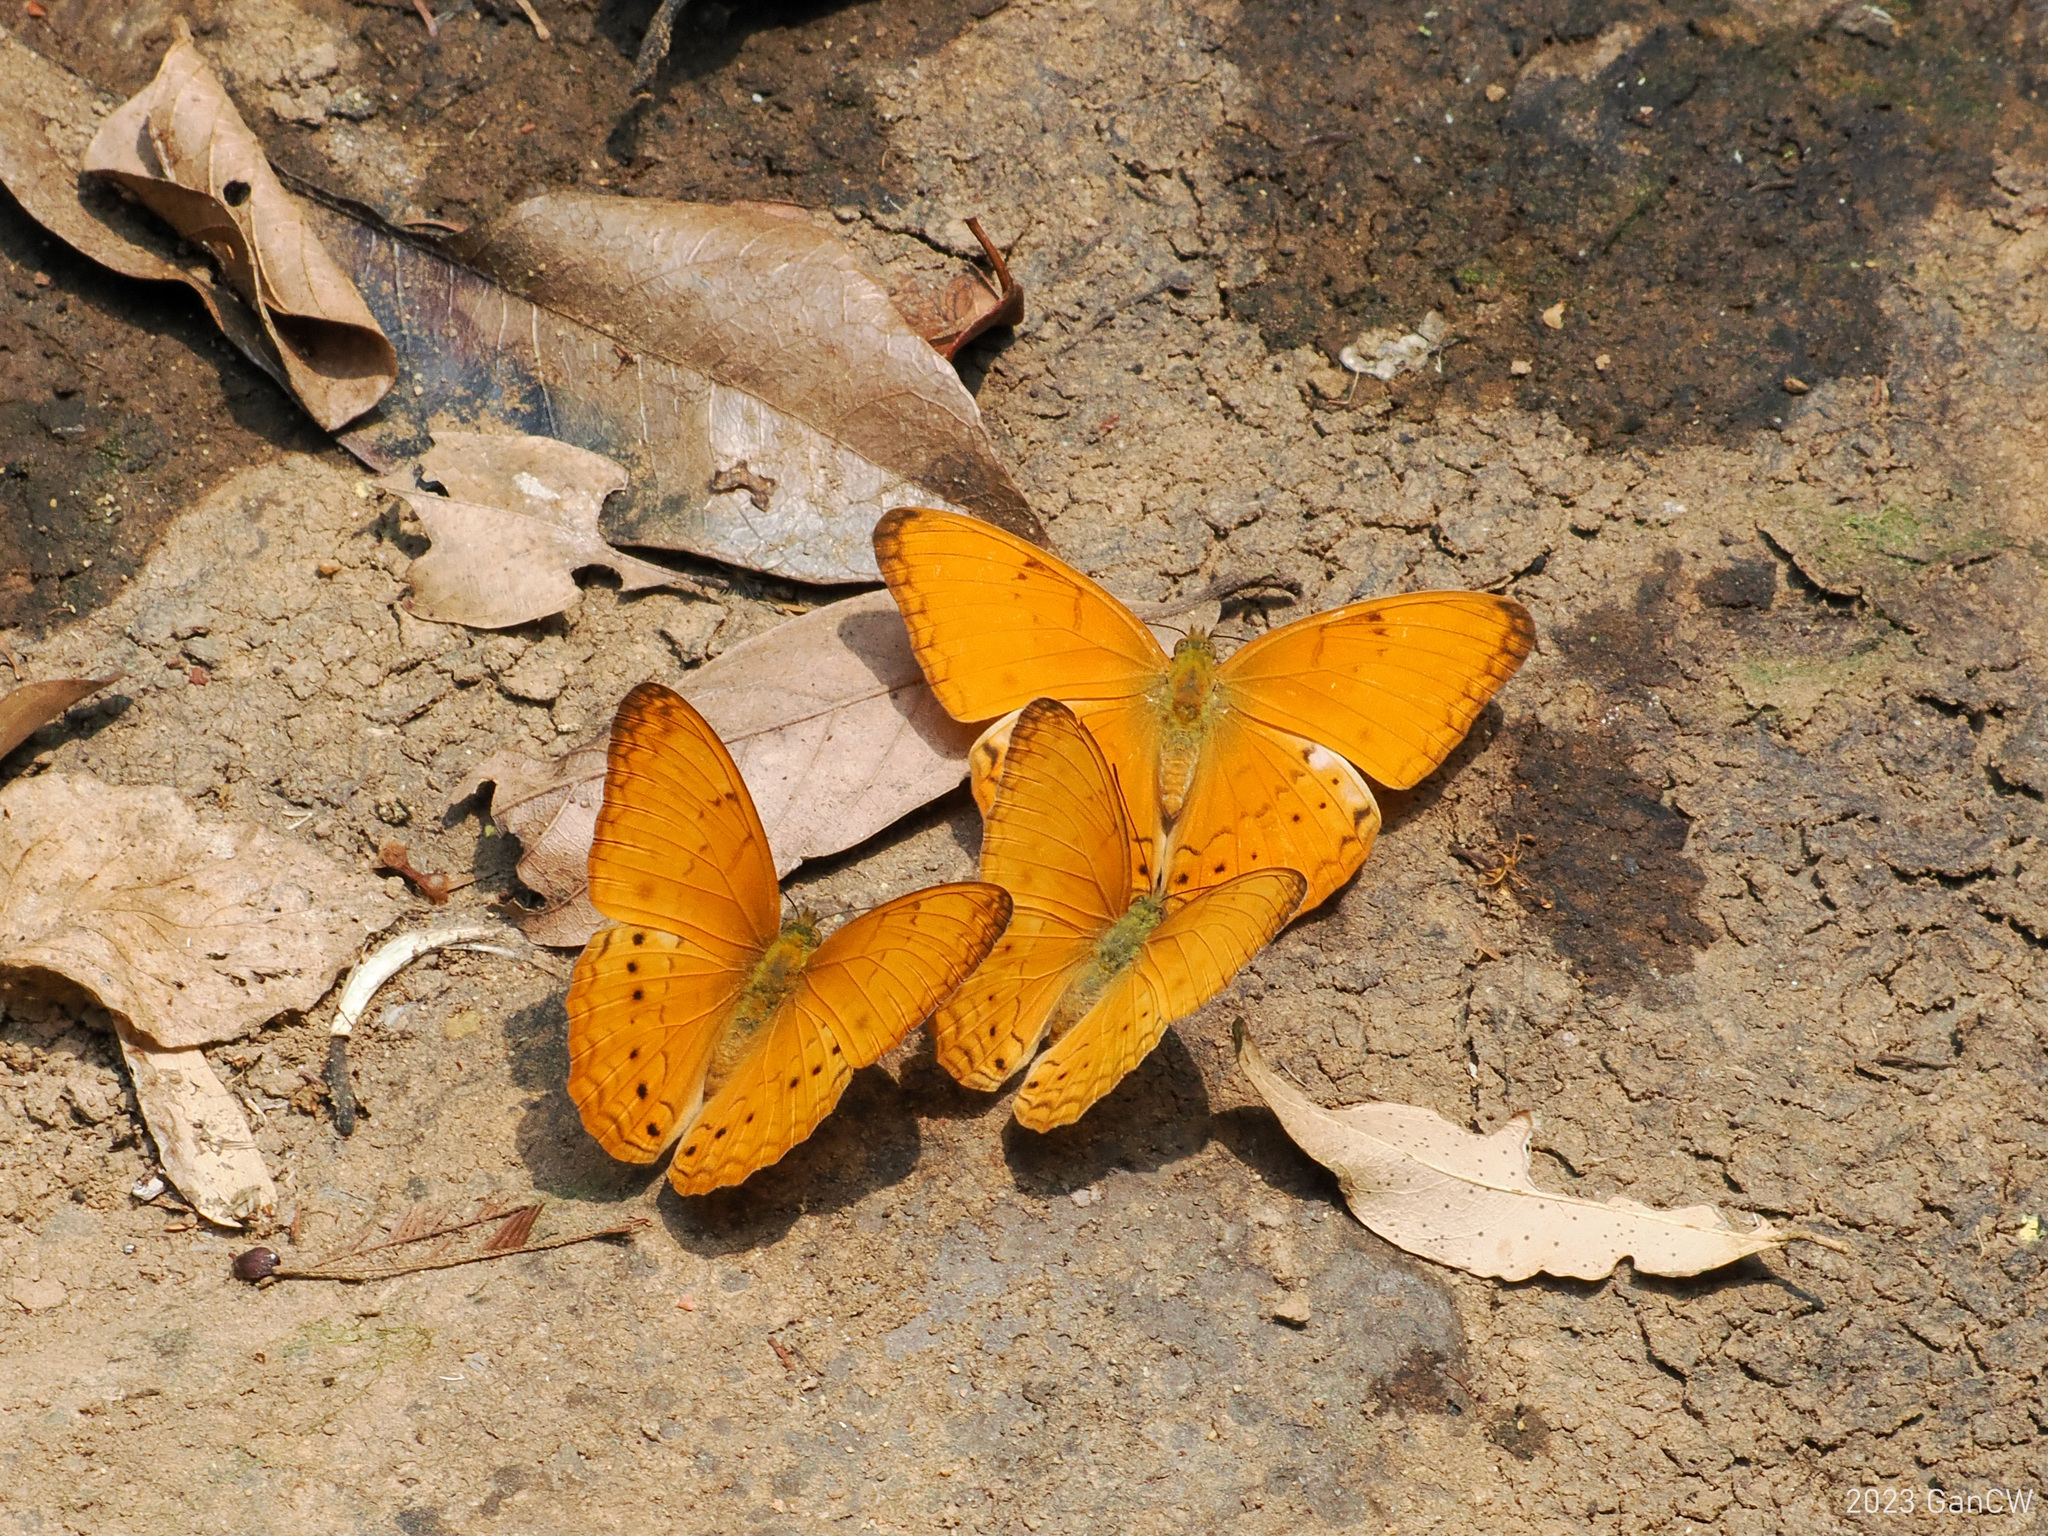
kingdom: Animalia
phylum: Arthropoda
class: Insecta
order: Lepidoptera
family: Nymphalidae
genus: Cirrochroa
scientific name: Cirrochroa tyche
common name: Common yeoman
